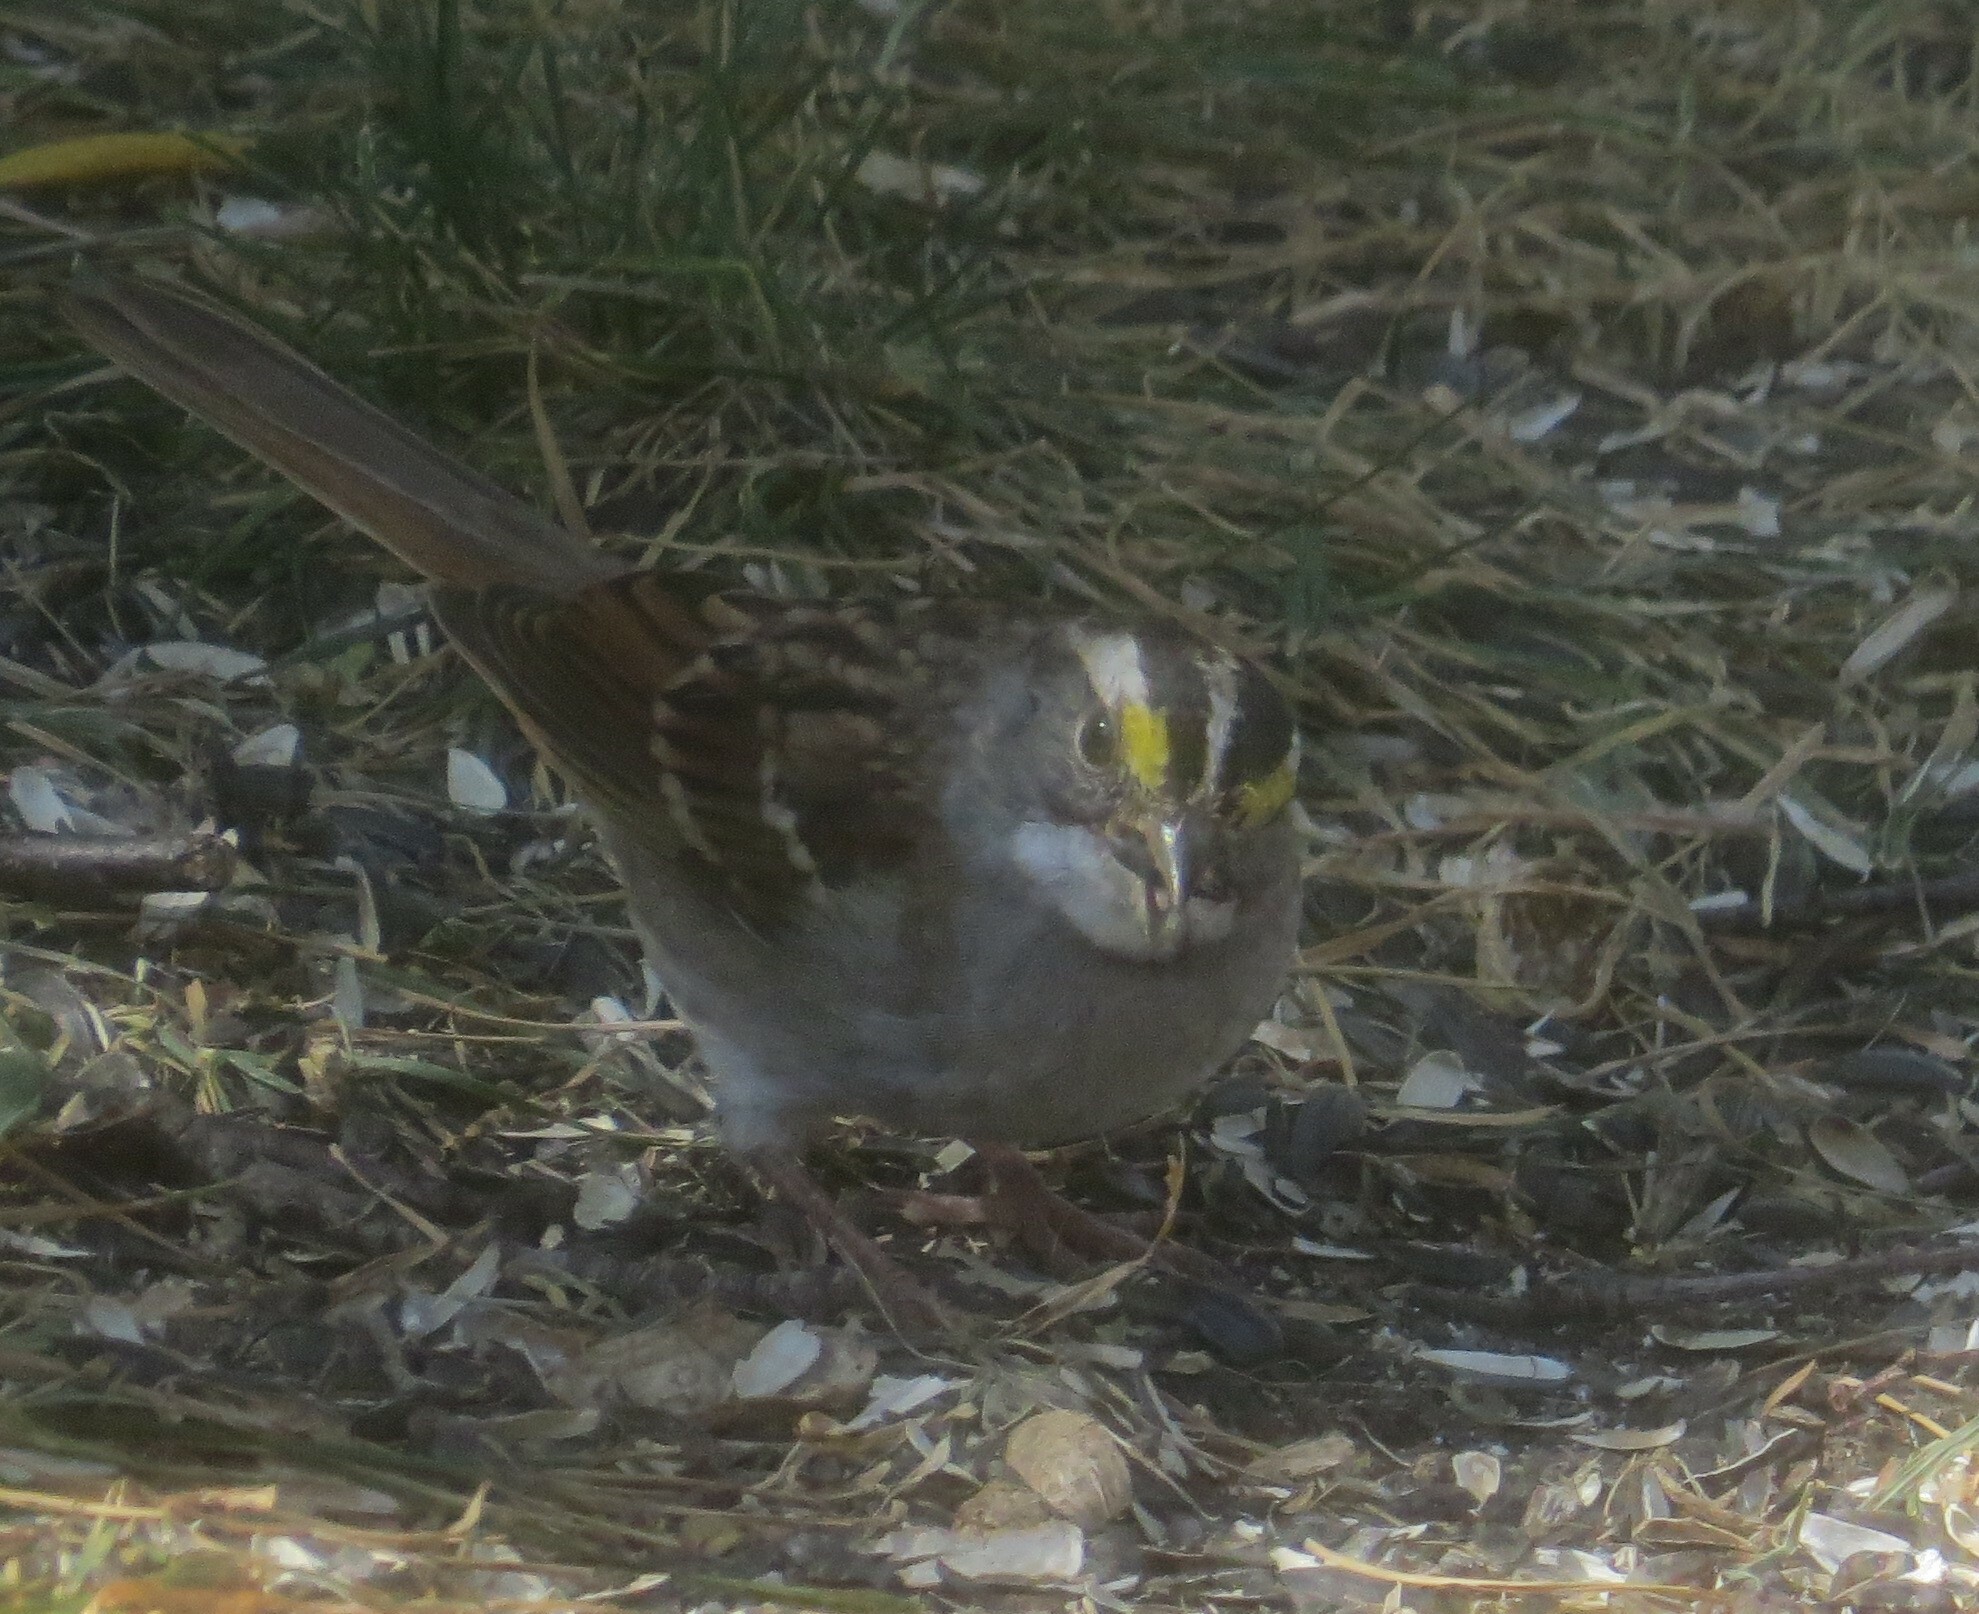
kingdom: Animalia
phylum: Chordata
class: Aves
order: Passeriformes
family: Passerellidae
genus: Zonotrichia
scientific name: Zonotrichia albicollis
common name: White-throated sparrow
